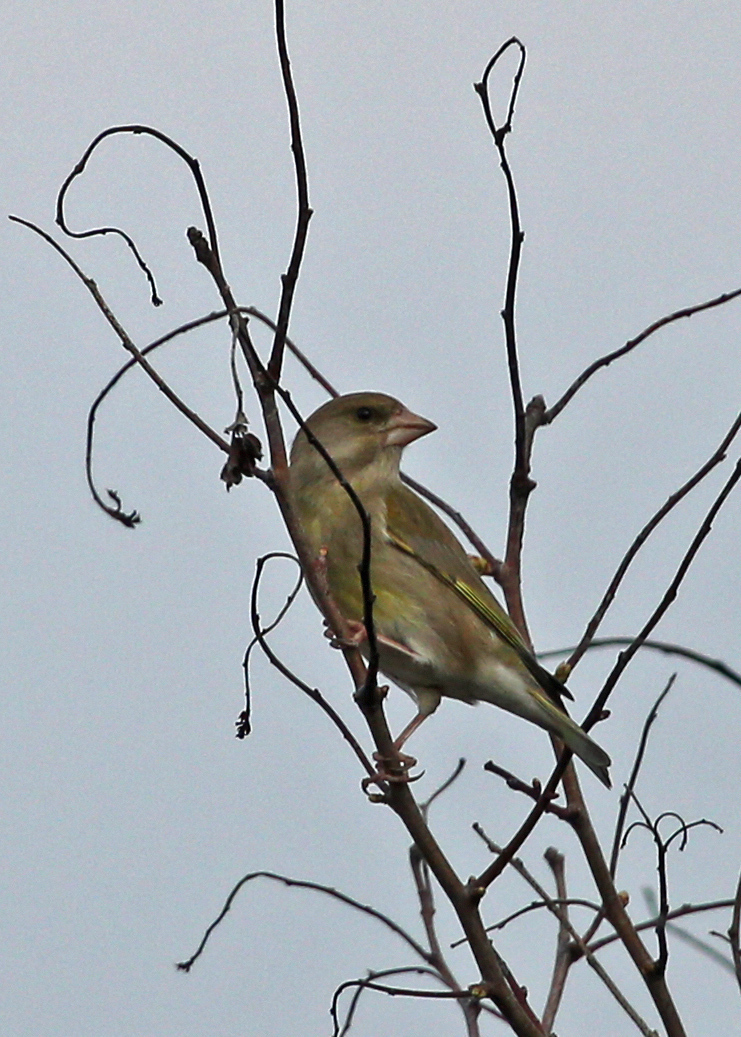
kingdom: Plantae
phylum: Tracheophyta
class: Liliopsida
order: Poales
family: Poaceae
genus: Chloris
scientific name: Chloris chloris
